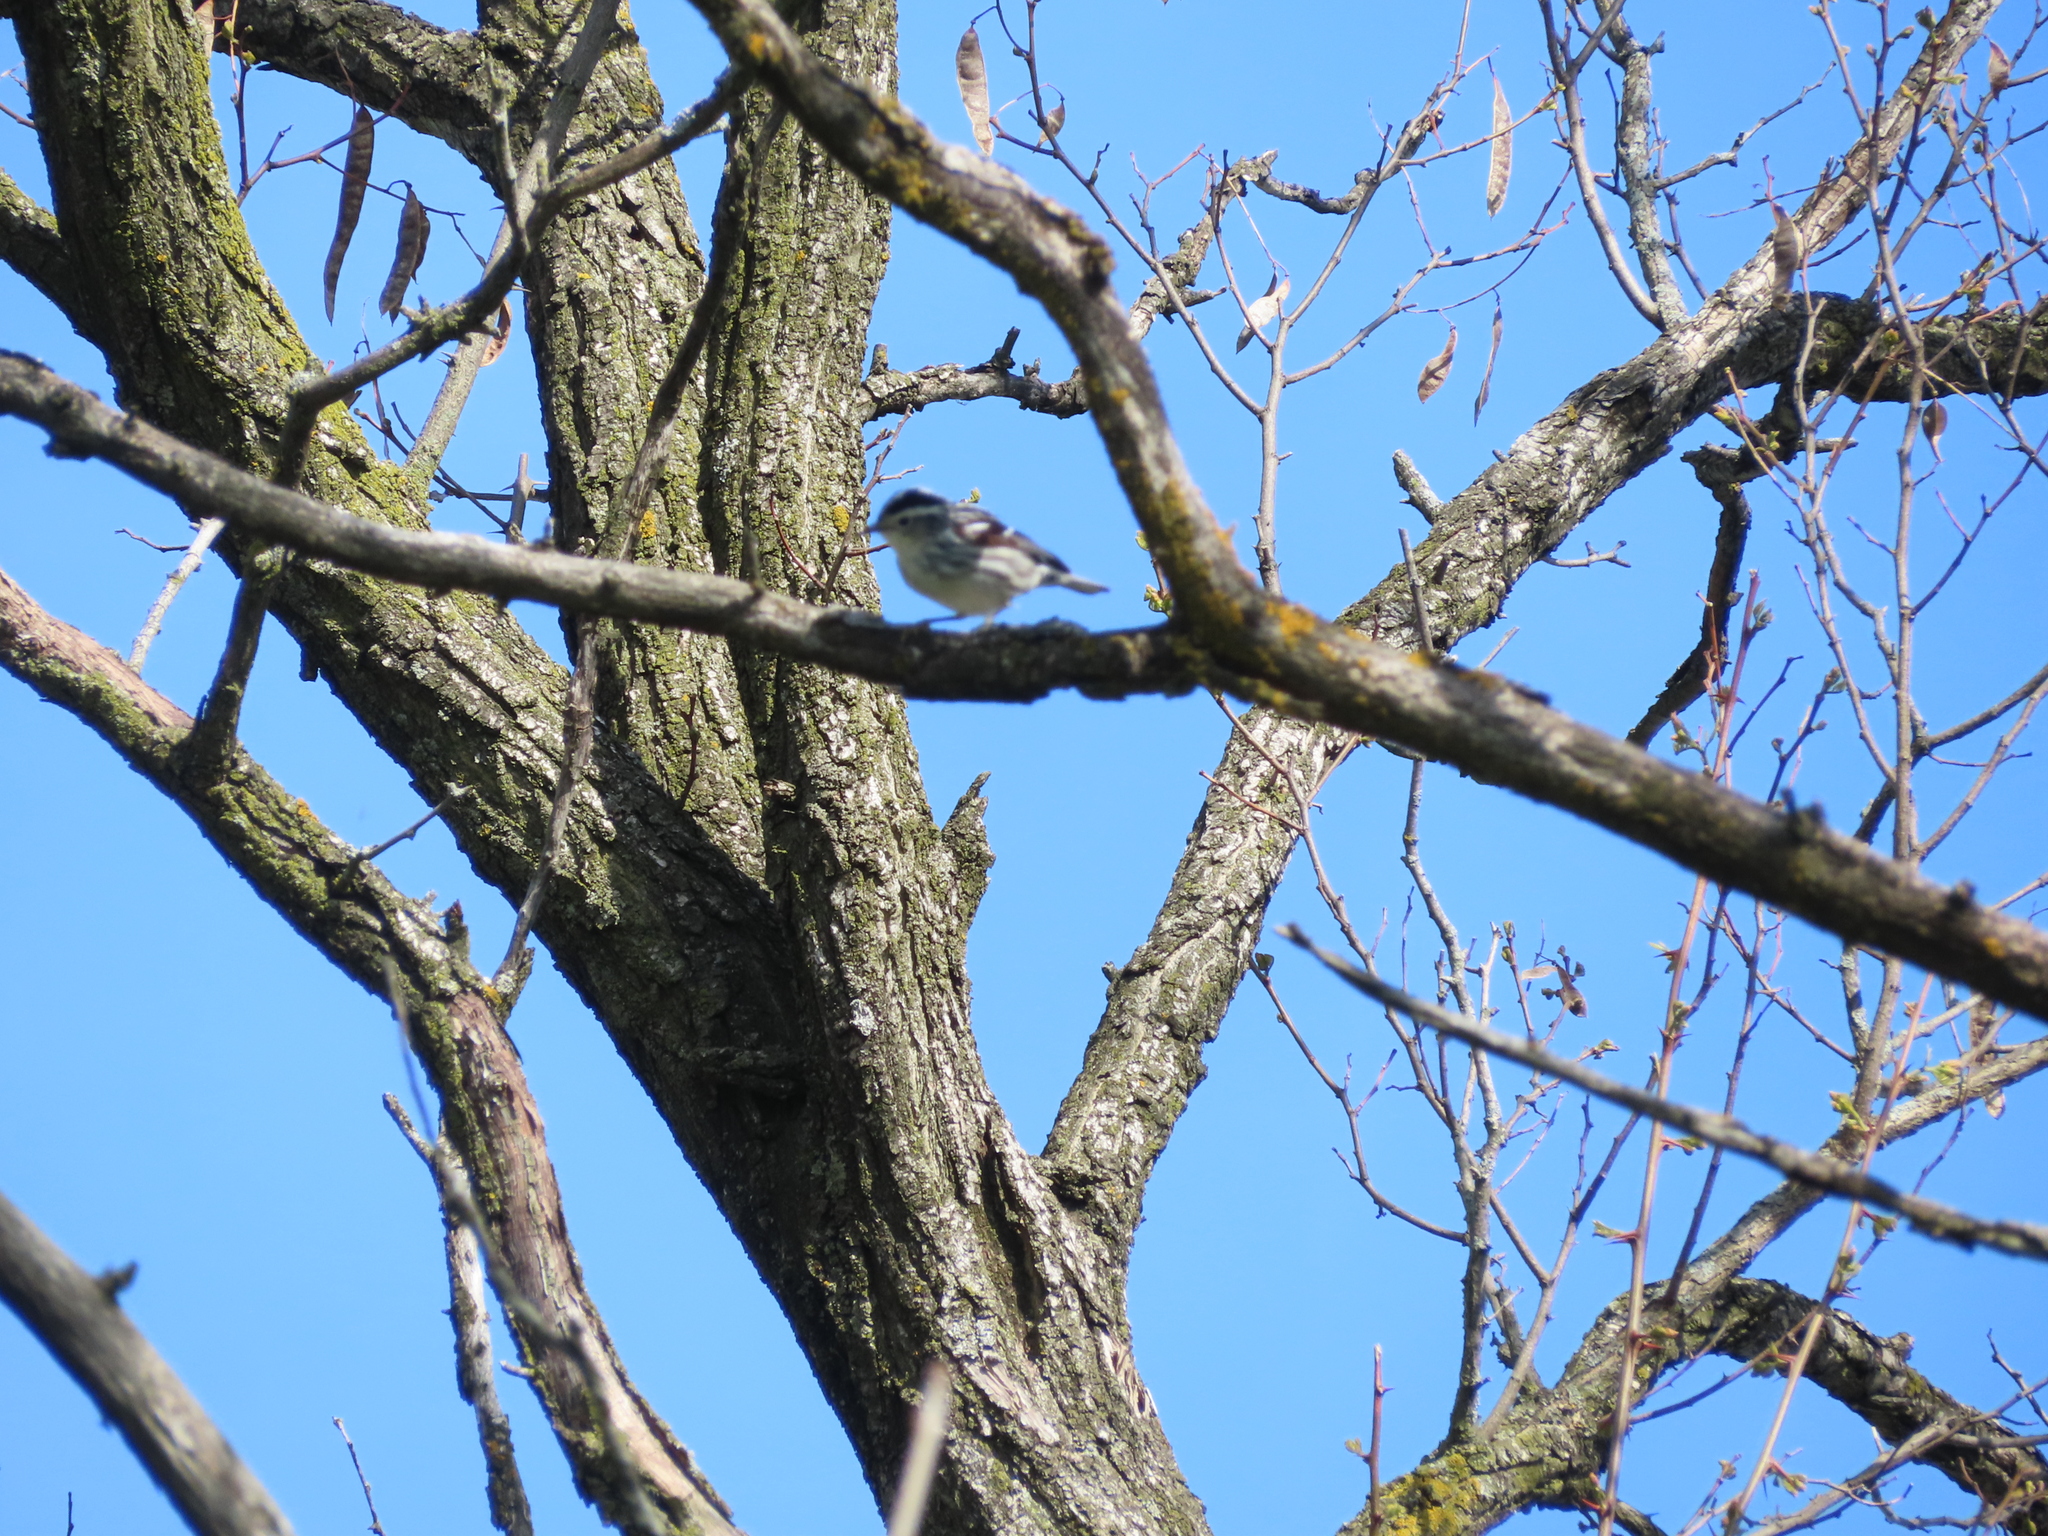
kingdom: Animalia
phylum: Chordata
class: Aves
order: Passeriformes
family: Parulidae
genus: Mniotilta
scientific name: Mniotilta varia
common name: Black-and-white warbler
